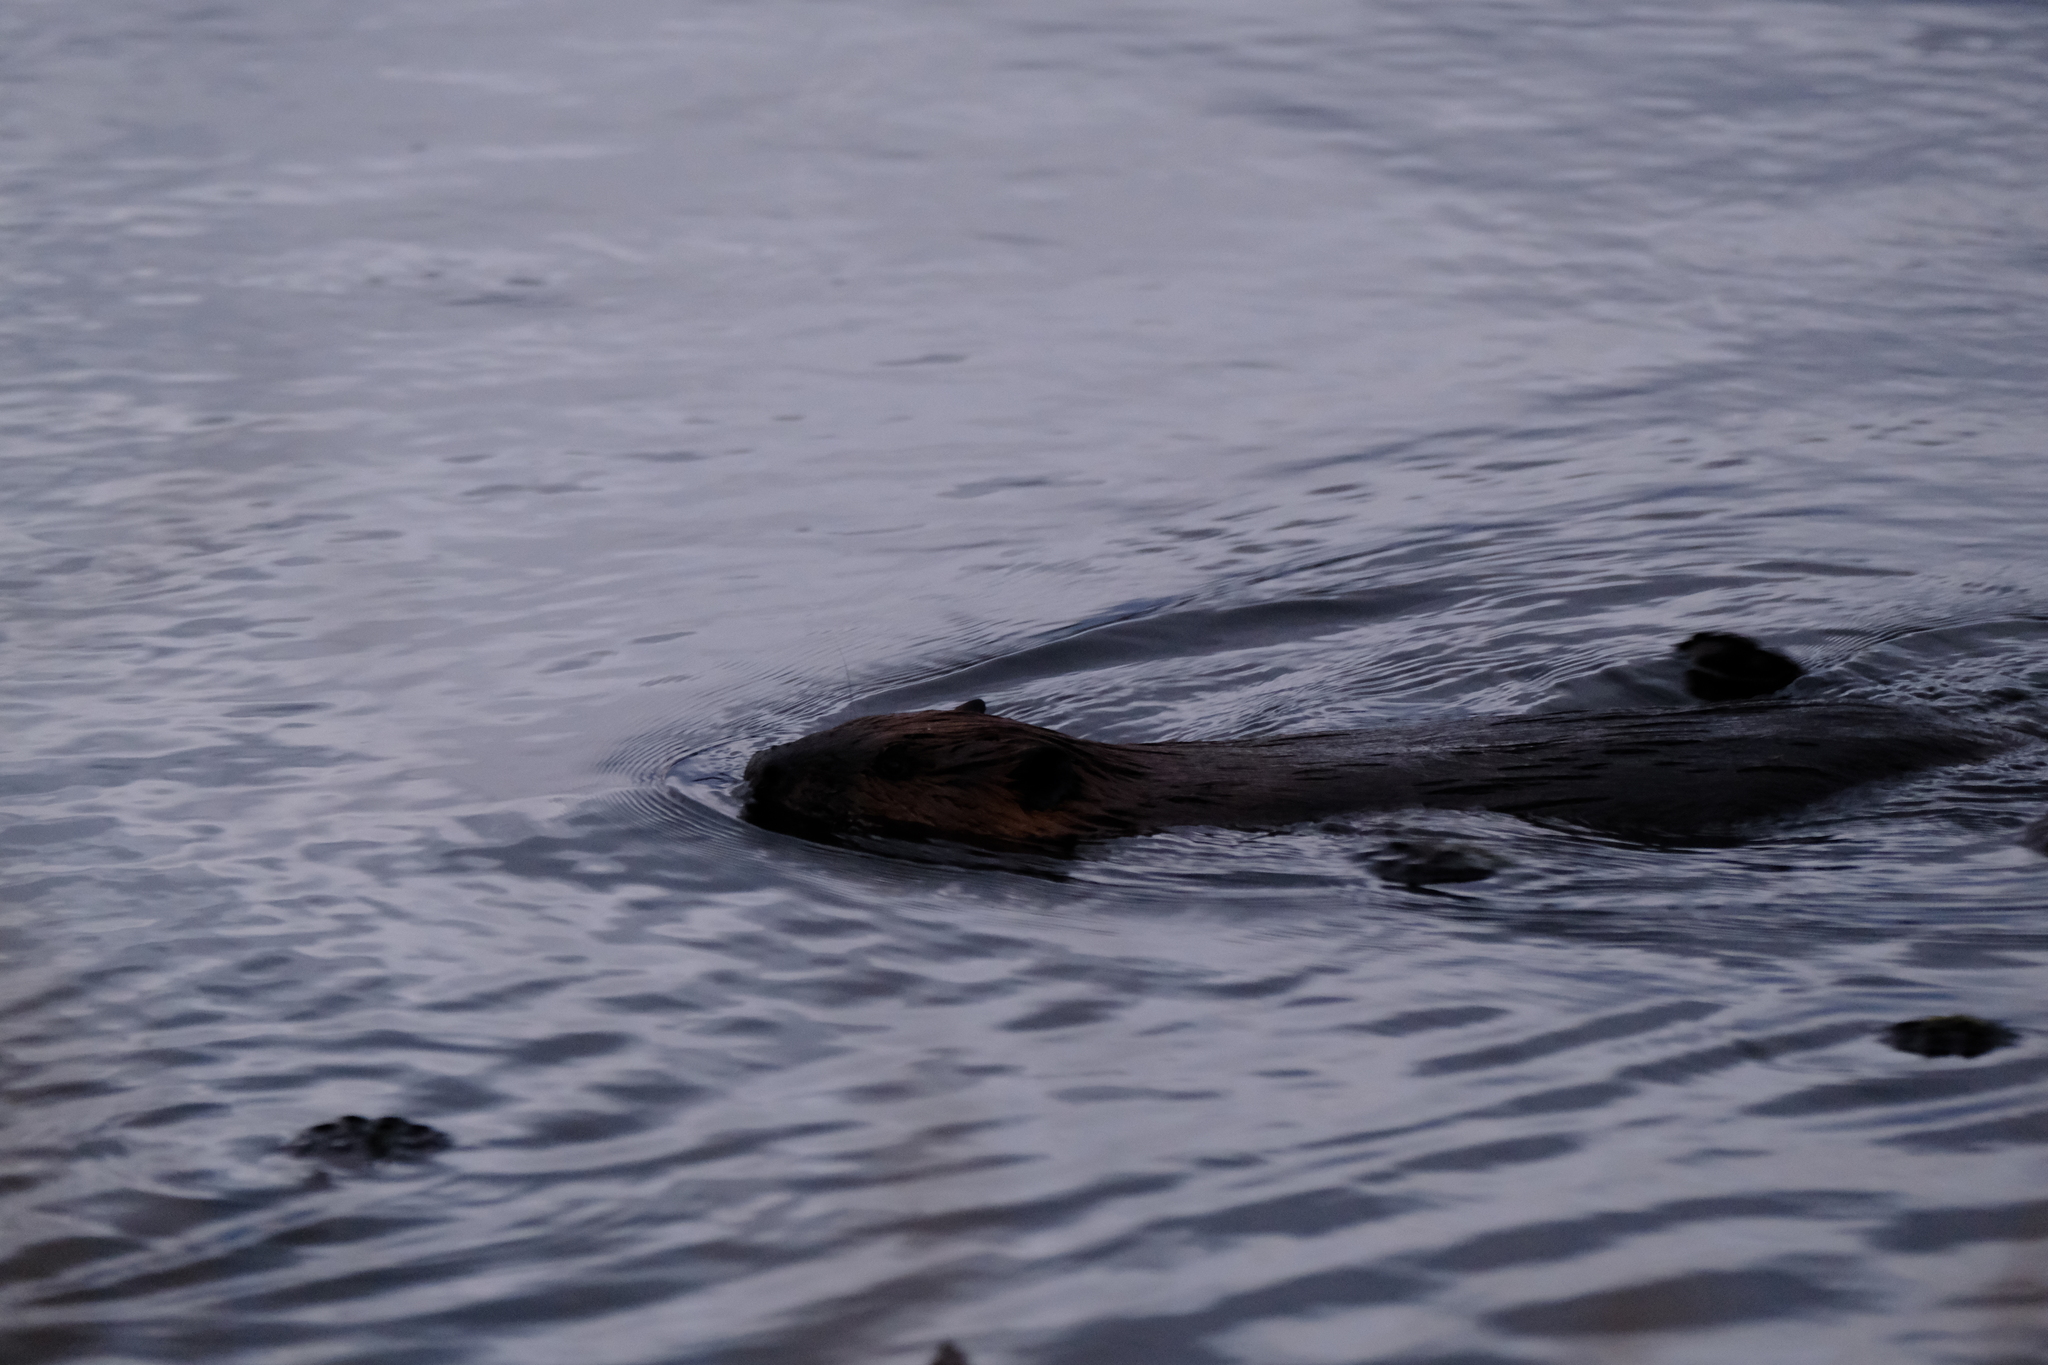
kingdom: Animalia
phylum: Chordata
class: Mammalia
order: Rodentia
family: Castoridae
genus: Castor
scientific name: Castor canadensis
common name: American beaver
